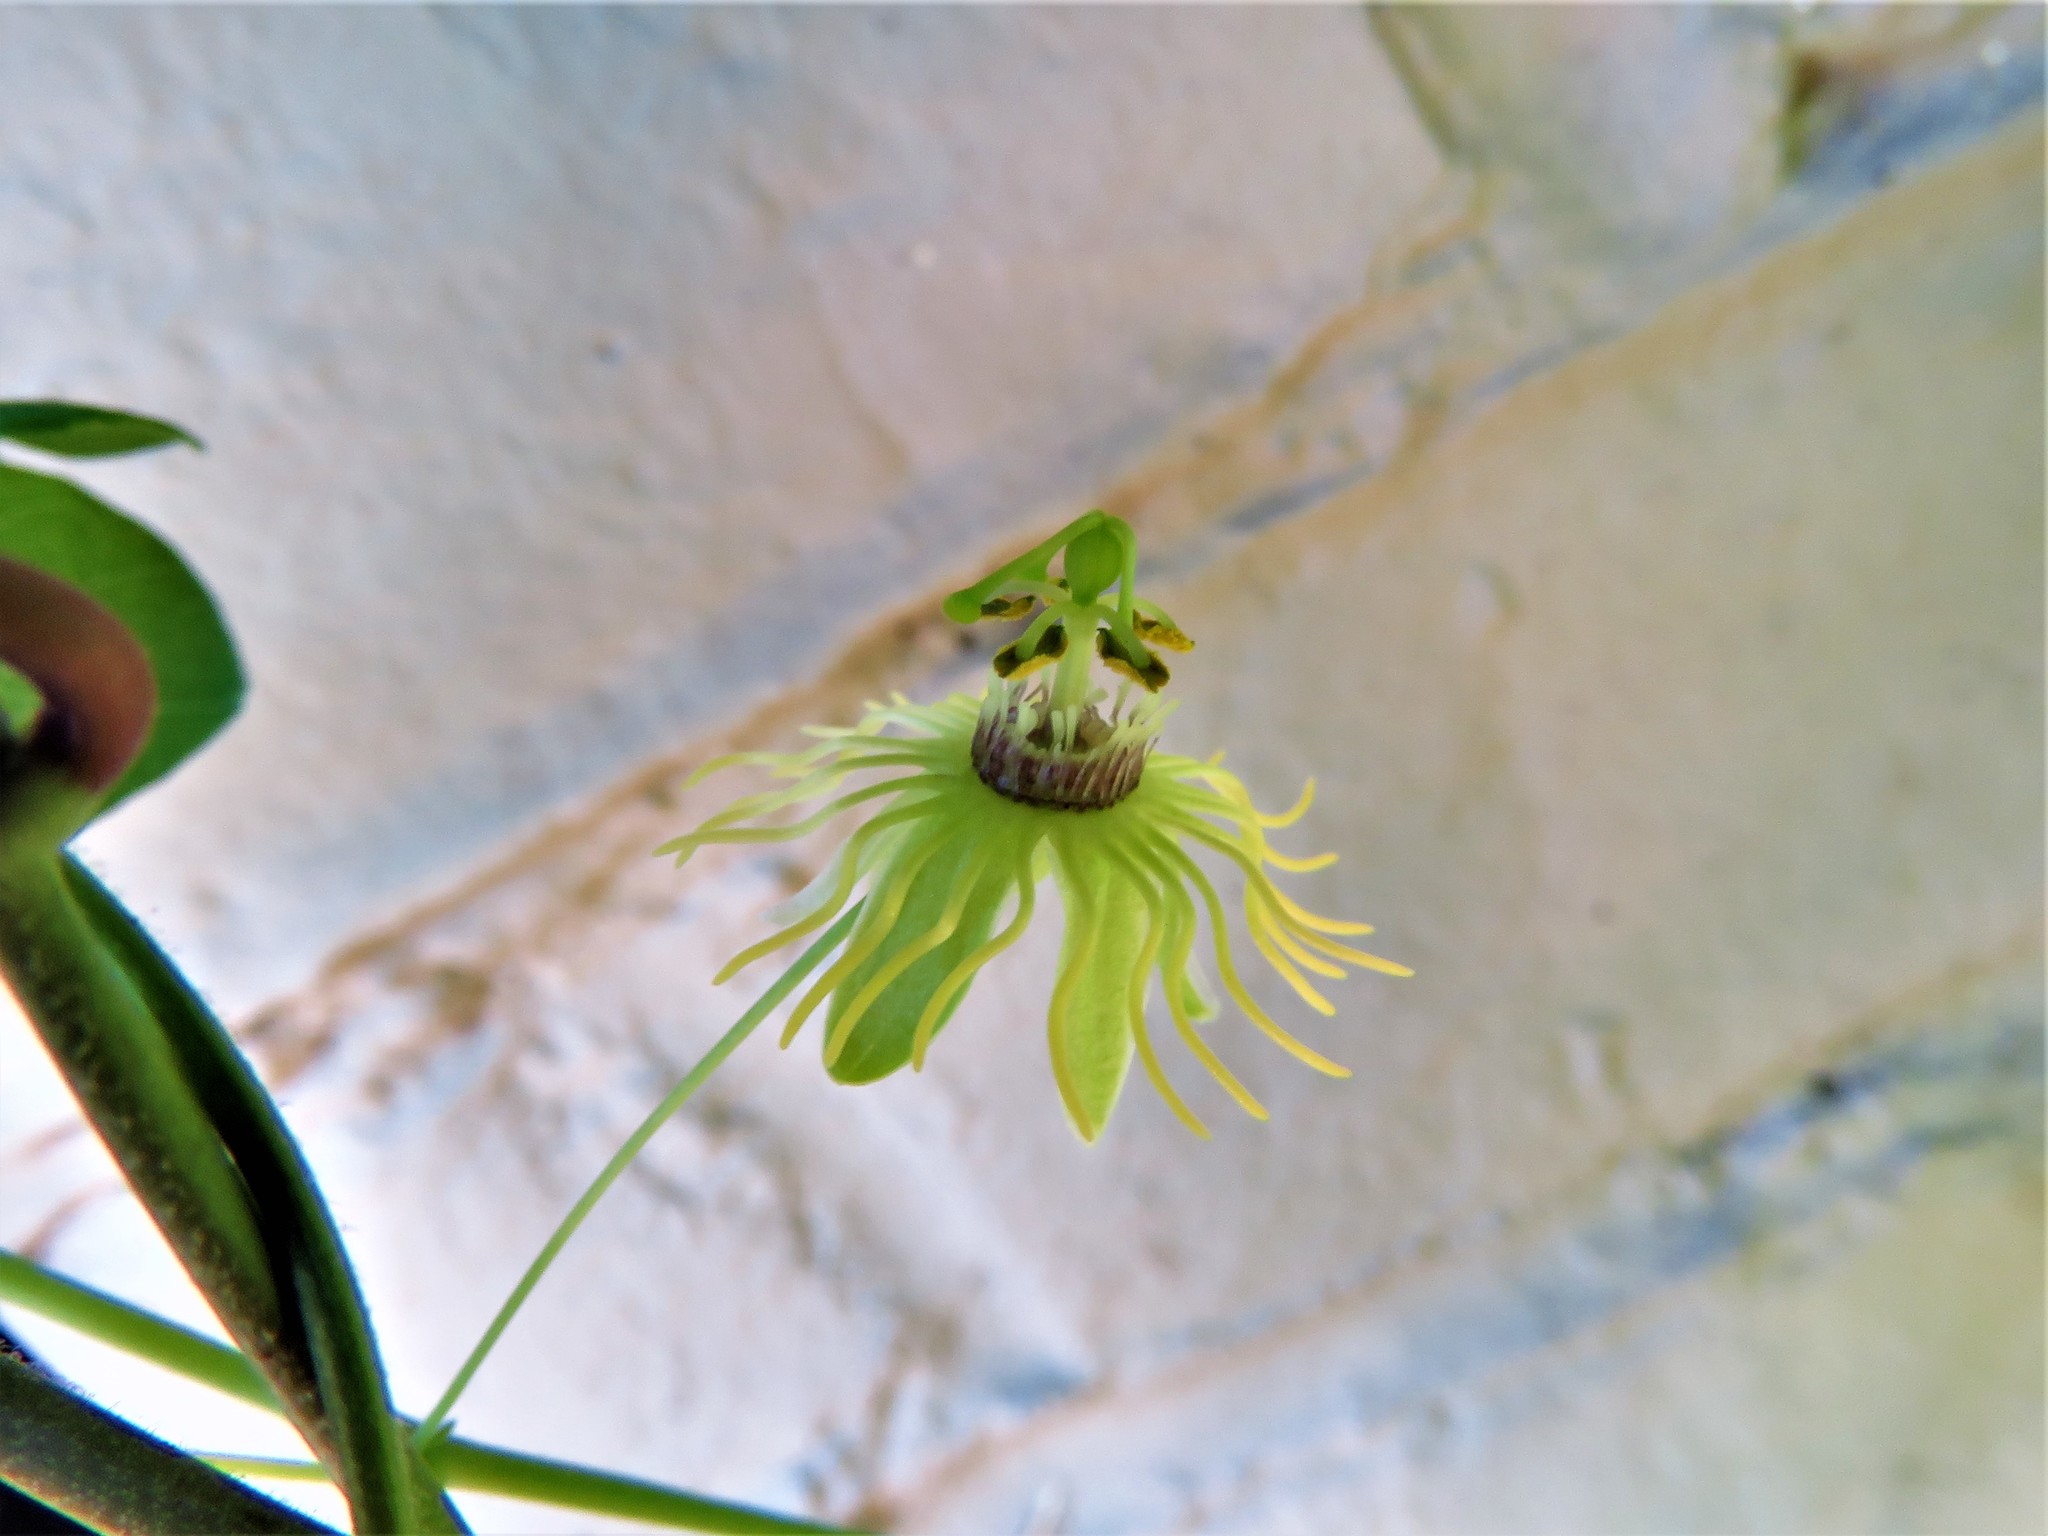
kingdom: Plantae
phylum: Tracheophyta
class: Magnoliopsida
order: Malpighiales
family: Passifloraceae
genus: Passiflora
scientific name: Passiflora lutea
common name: Yellow passionflower
